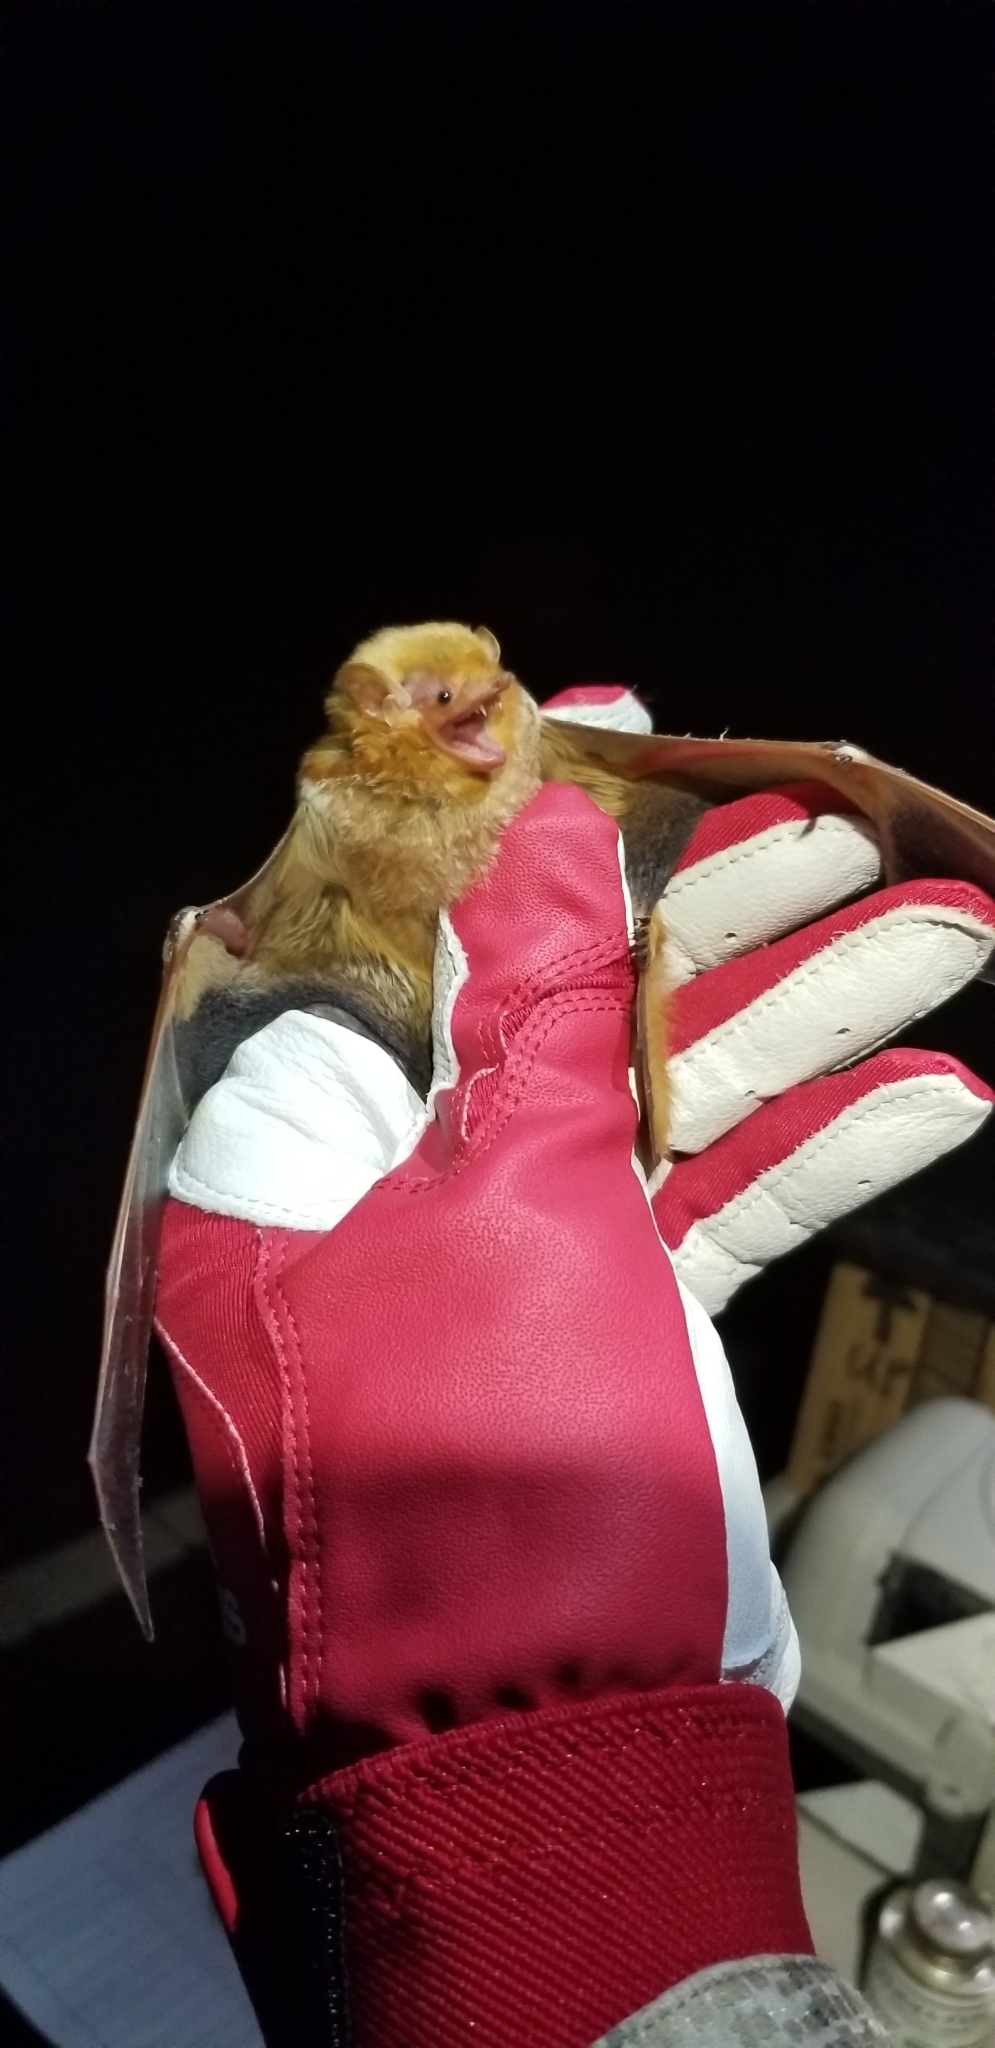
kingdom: Animalia
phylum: Chordata
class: Mammalia
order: Chiroptera
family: Vespertilionidae
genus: Lasiurus
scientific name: Lasiurus borealis
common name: Eastern red bat
